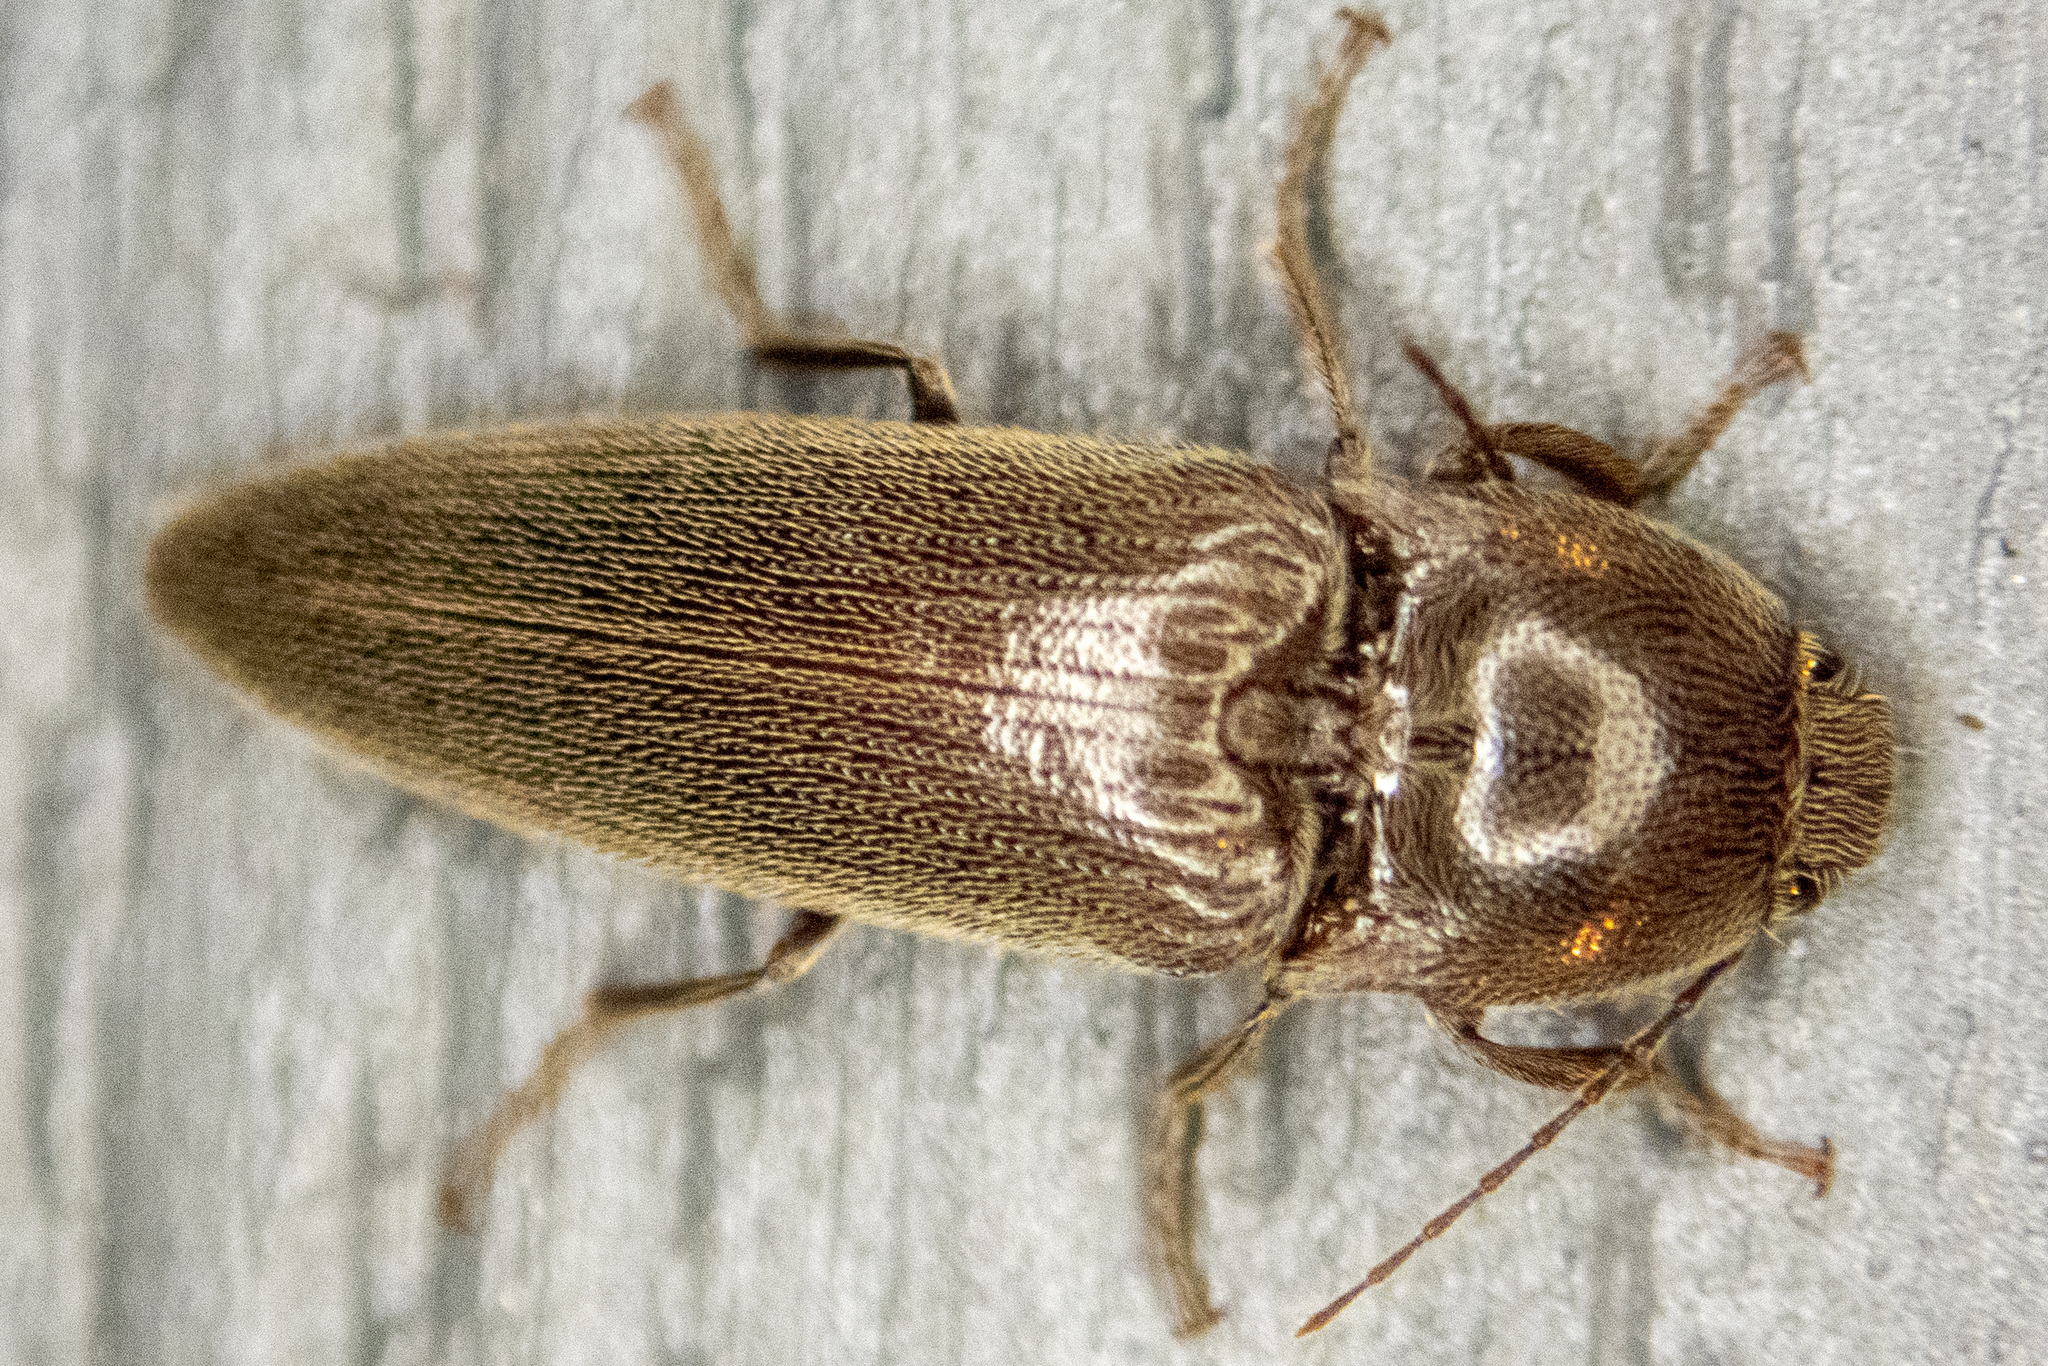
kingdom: Animalia
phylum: Arthropoda
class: Insecta
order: Coleoptera
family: Elateridae
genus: Melanotus
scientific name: Melanotus
